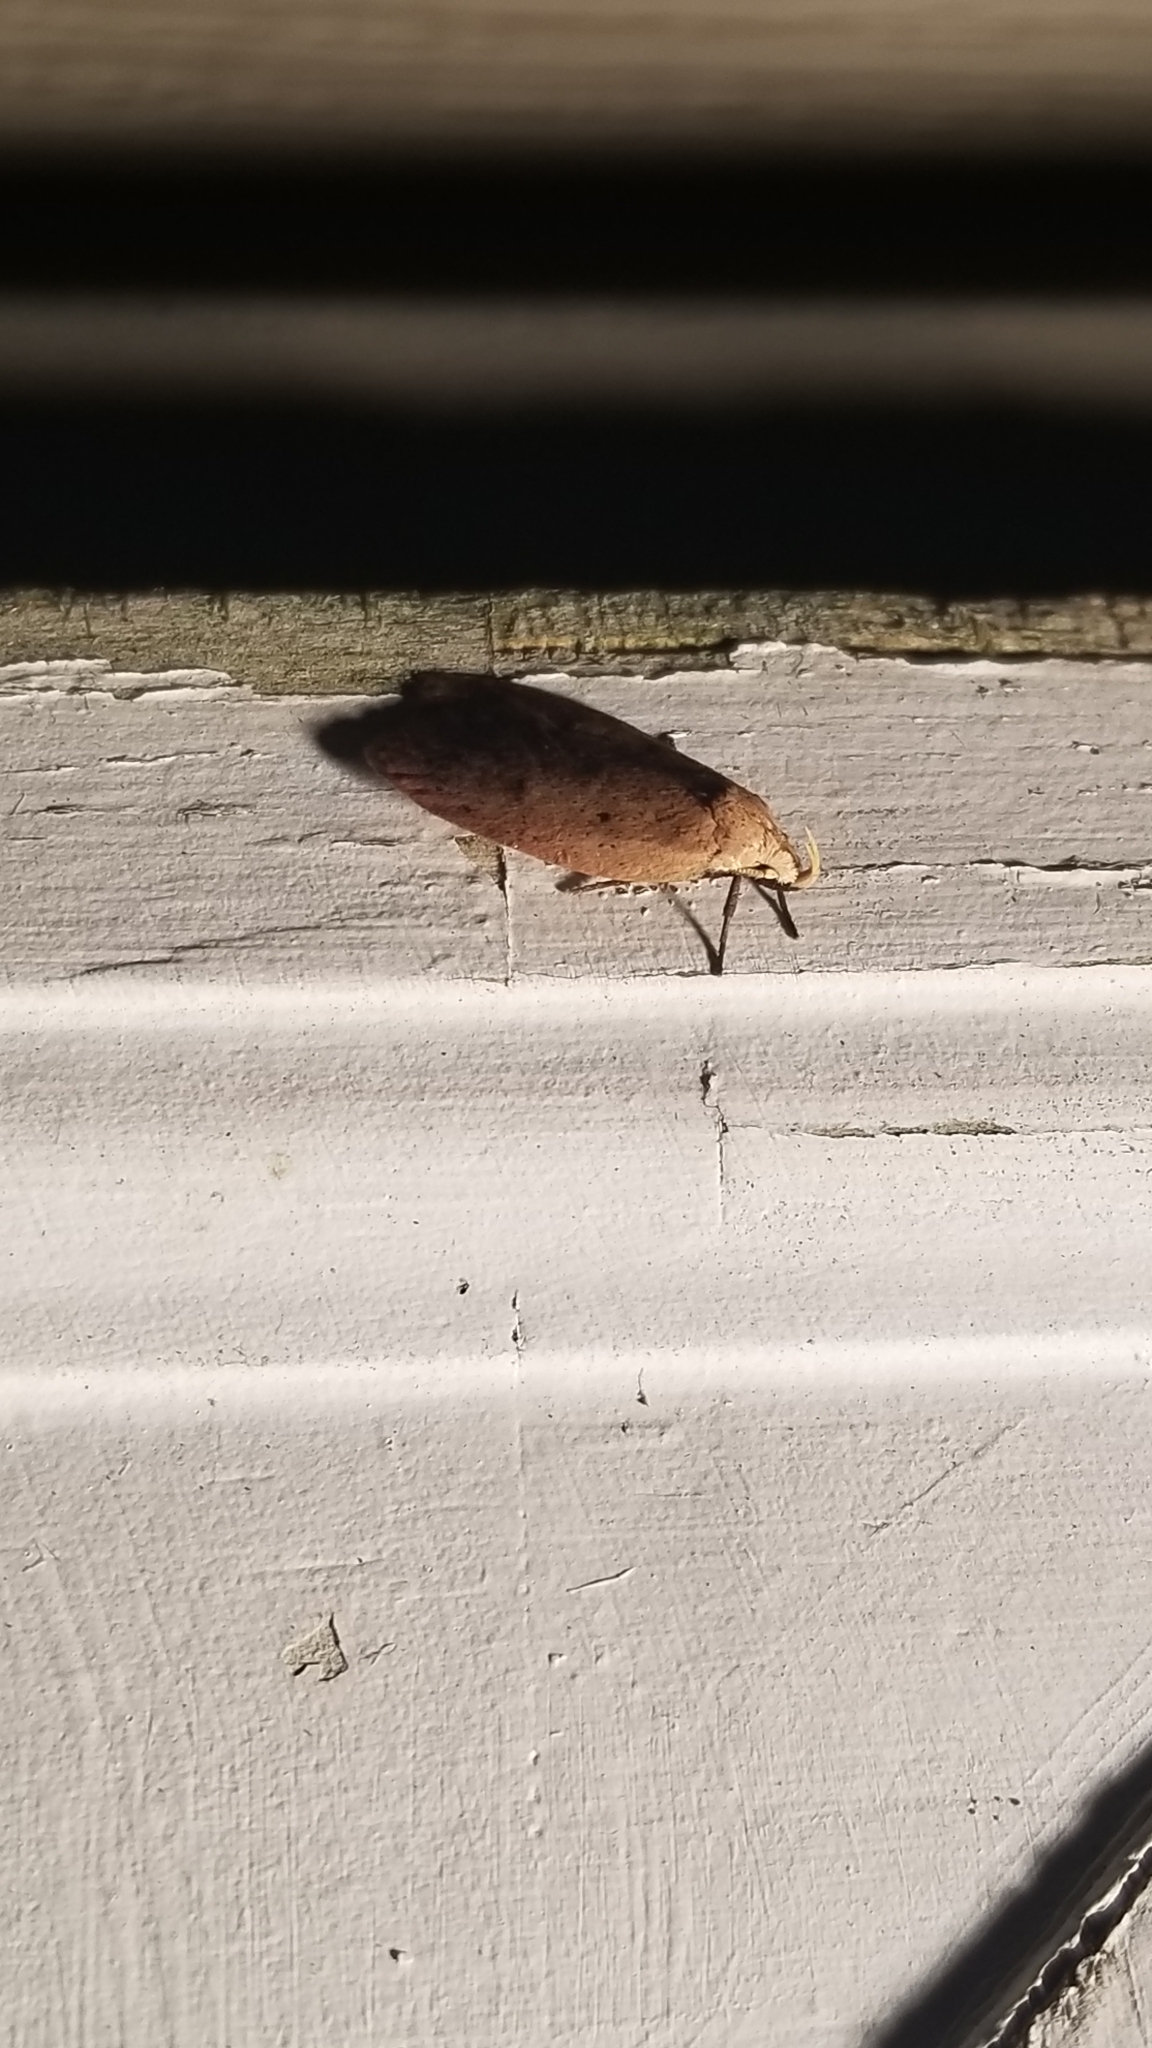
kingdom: Animalia
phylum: Arthropoda
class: Insecta
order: Lepidoptera
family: Peleopodidae
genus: Machimia
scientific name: Machimia tentoriferella
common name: Gold-striped leaftier moth
